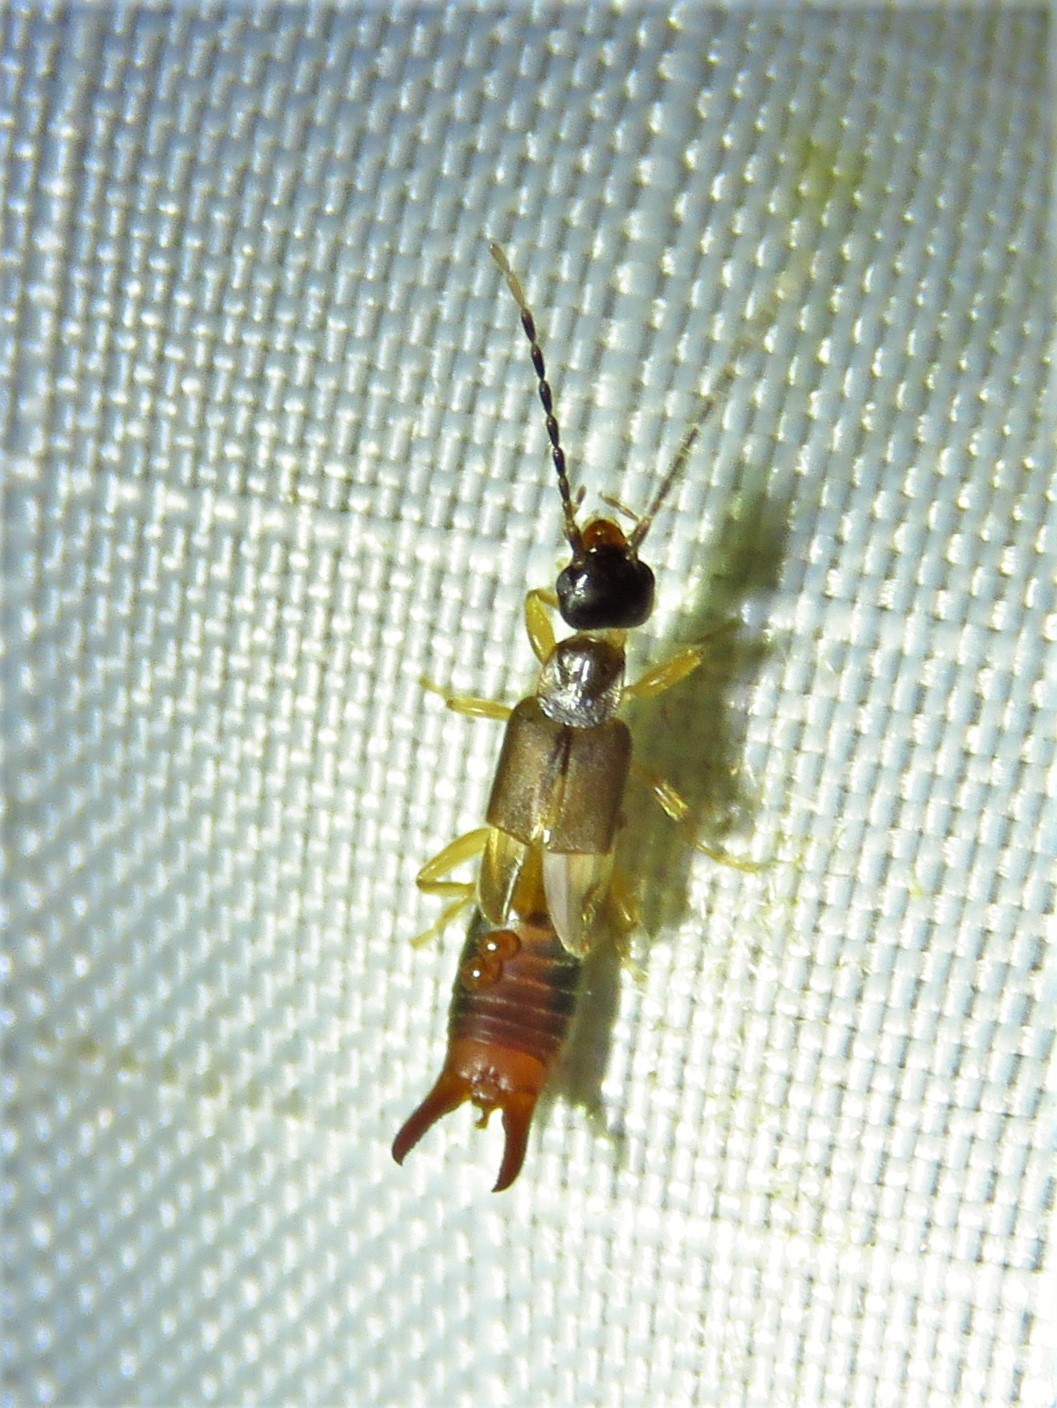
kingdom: Animalia
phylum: Arthropoda
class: Insecta
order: Dermaptera
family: Spongiphoridae
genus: Labia
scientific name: Labia minor
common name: Lesser earwig
